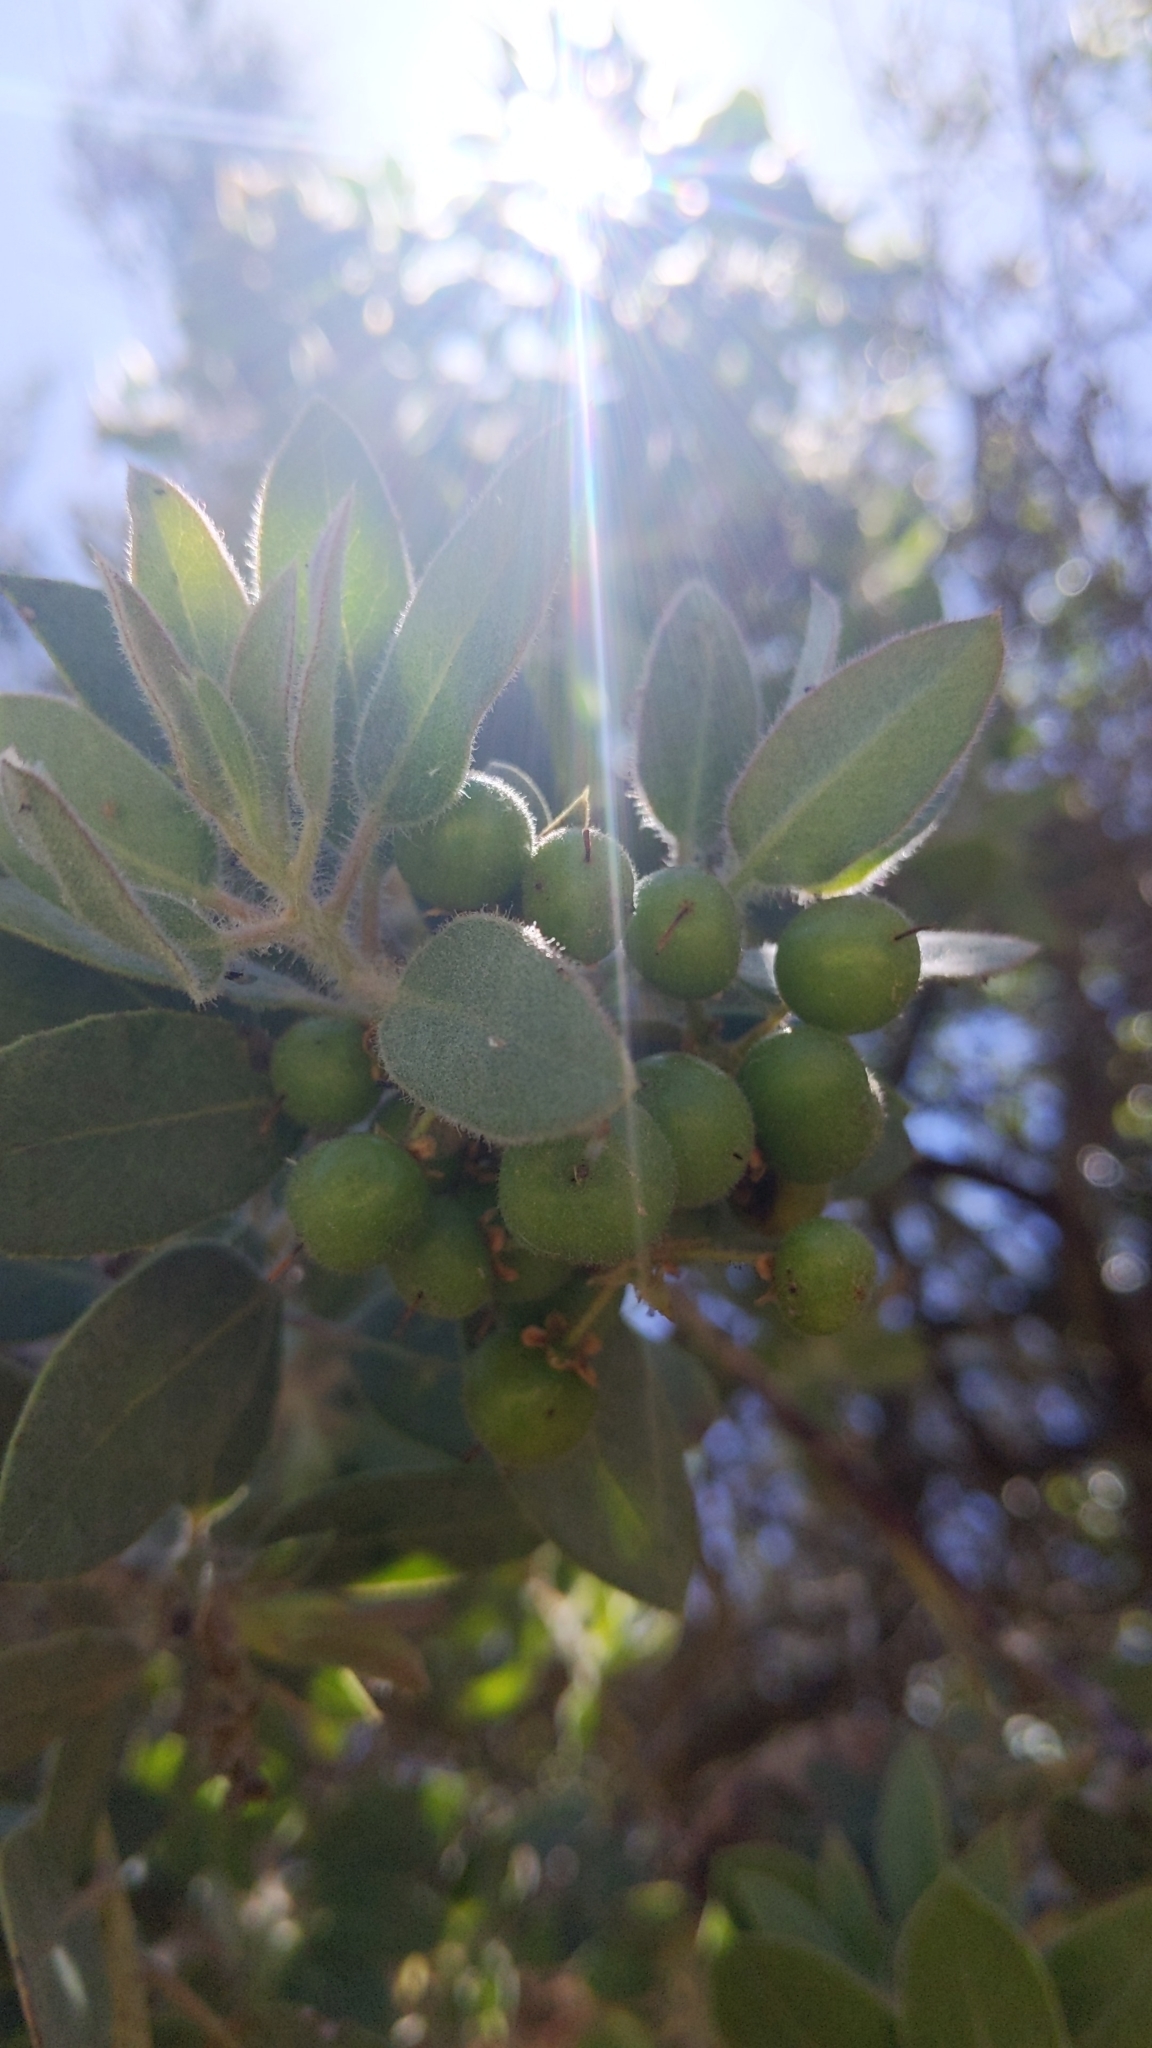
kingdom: Plantae
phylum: Tracheophyta
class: Magnoliopsida
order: Ericales
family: Ericaceae
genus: Arctostaphylos
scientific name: Arctostaphylos glandulosa
